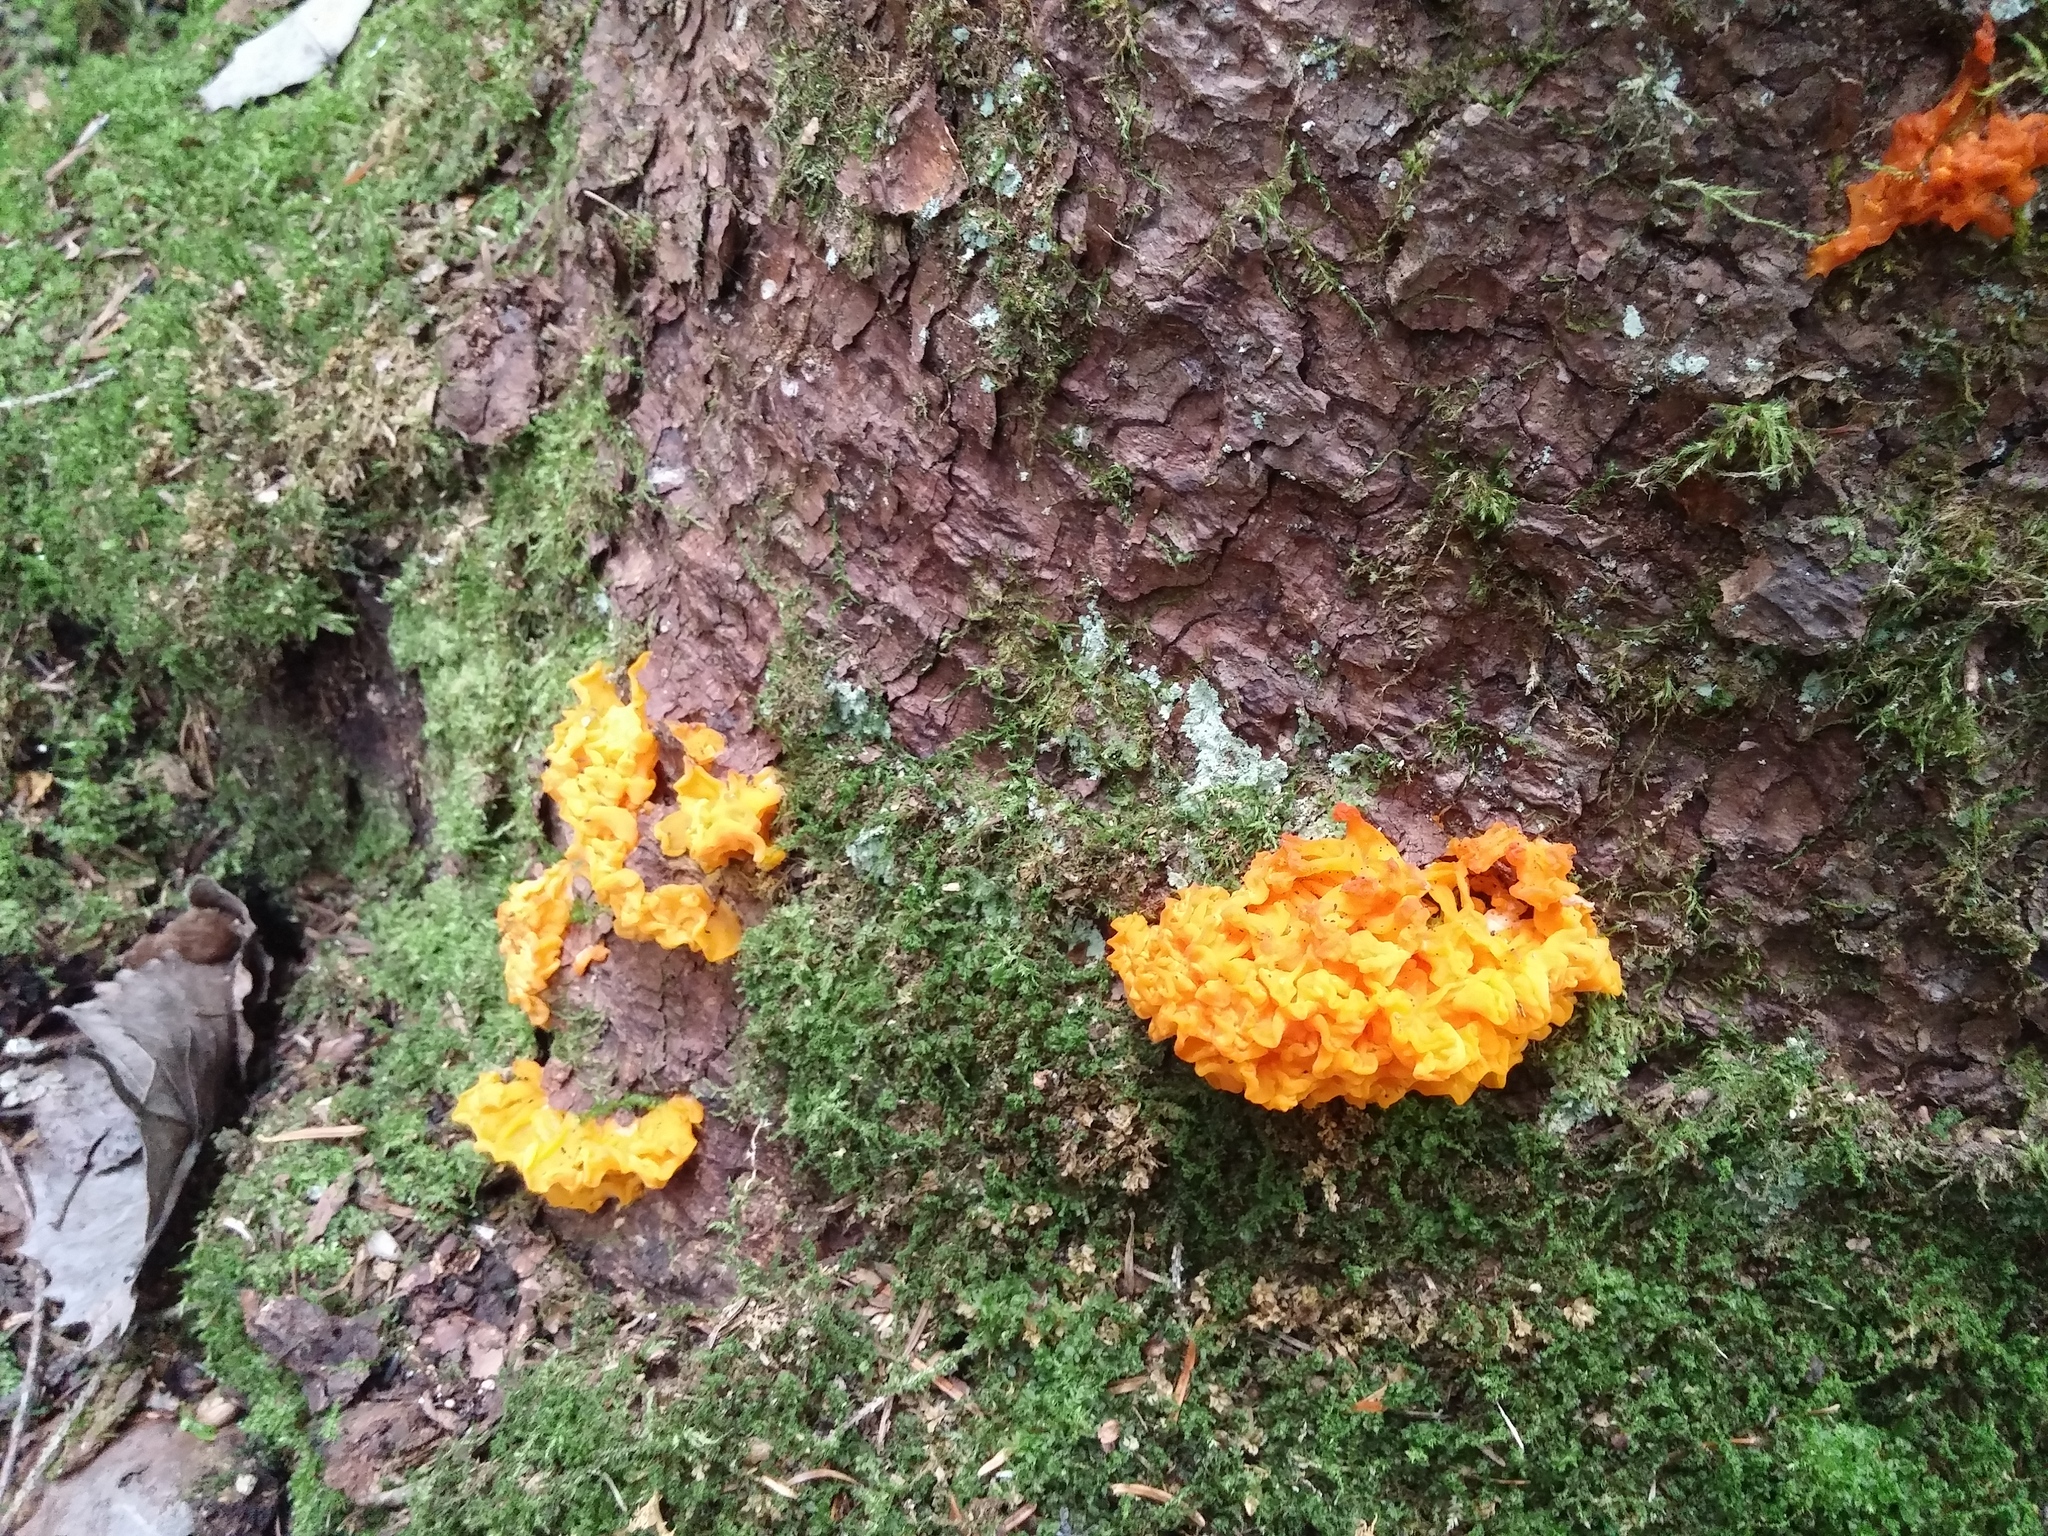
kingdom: Fungi
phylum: Basidiomycota
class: Dacrymycetes
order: Dacrymycetales
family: Dacrymycetaceae
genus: Dacrymyces
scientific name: Dacrymyces chrysospermus
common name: Orange jelly spot
